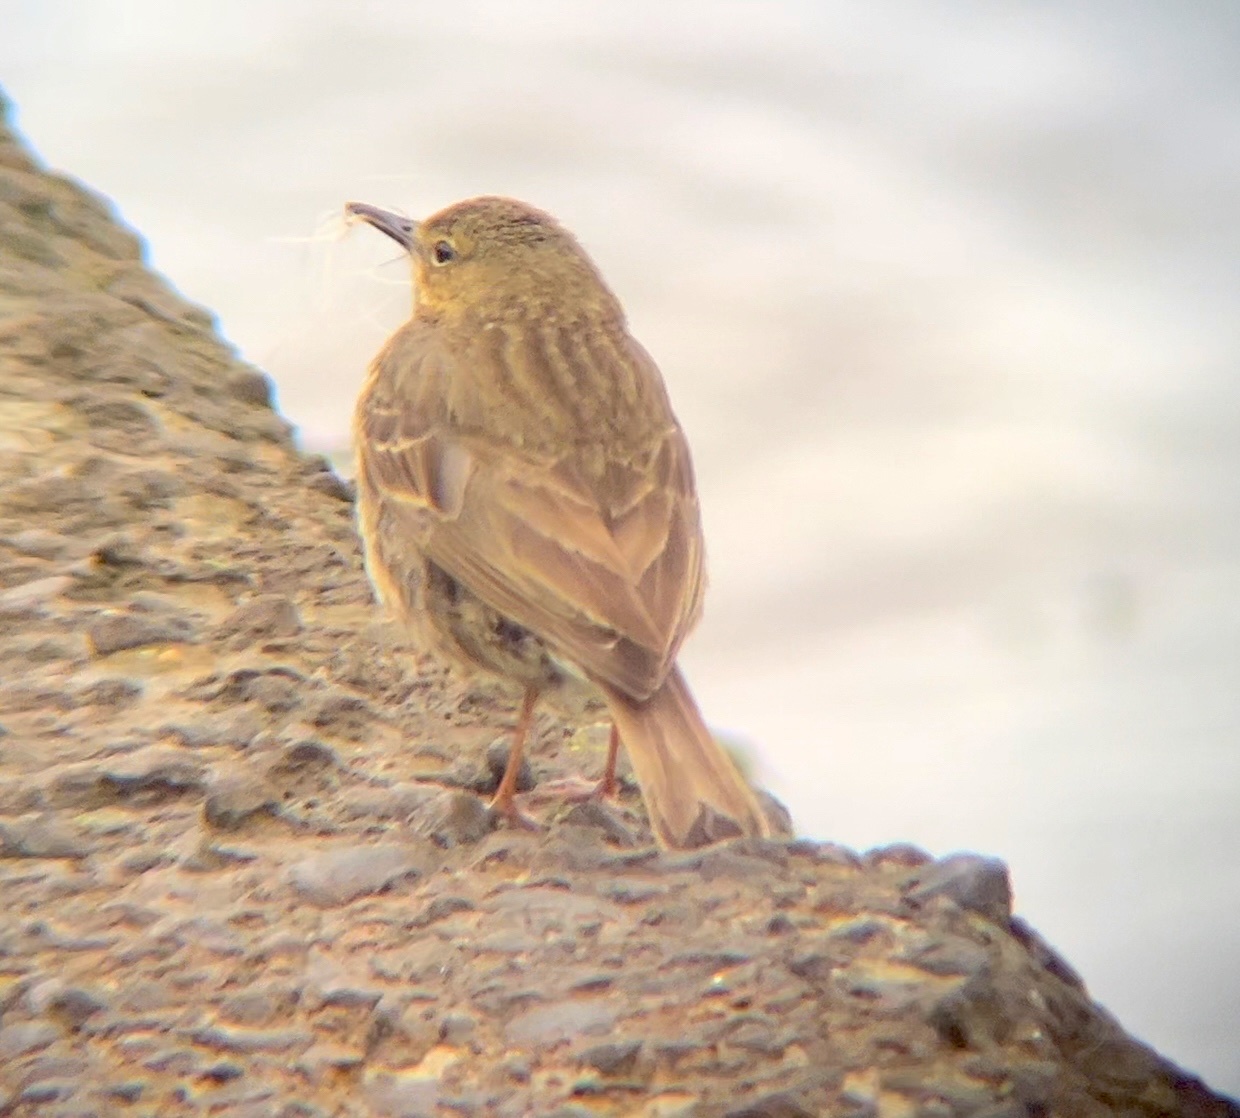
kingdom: Animalia
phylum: Chordata
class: Aves
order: Passeriformes
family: Motacillidae
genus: Anthus
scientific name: Anthus petrosus
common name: Eurasian rock pipit
